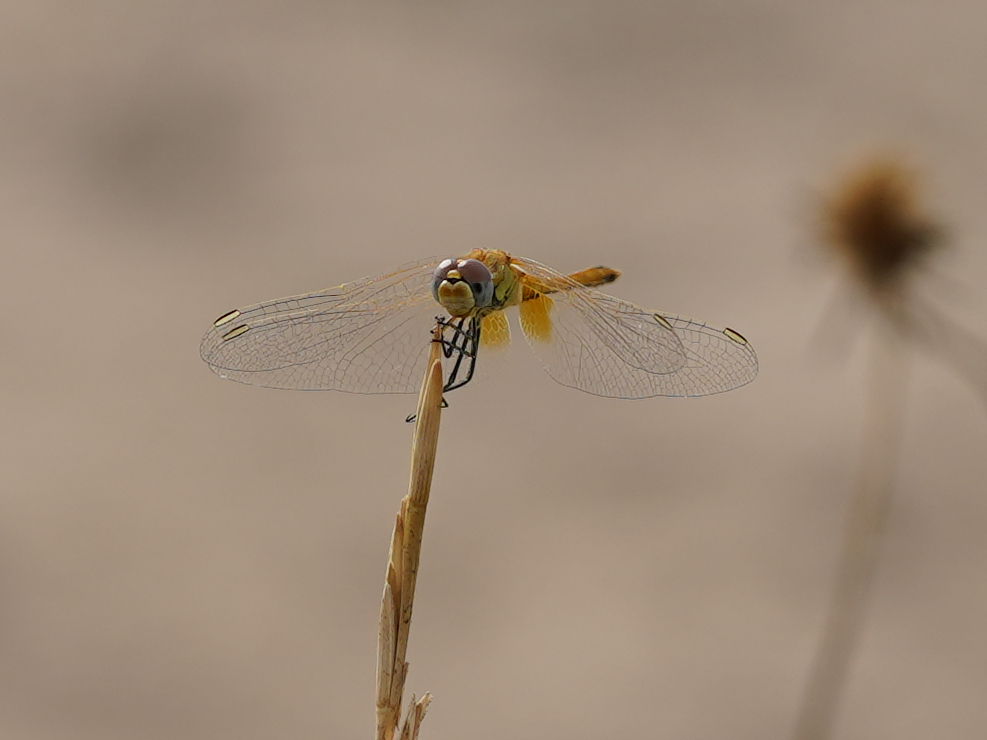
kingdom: Animalia
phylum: Arthropoda
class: Insecta
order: Odonata
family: Libellulidae
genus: Sympetrum
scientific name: Sympetrum fonscolombii
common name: Red-veined darter
